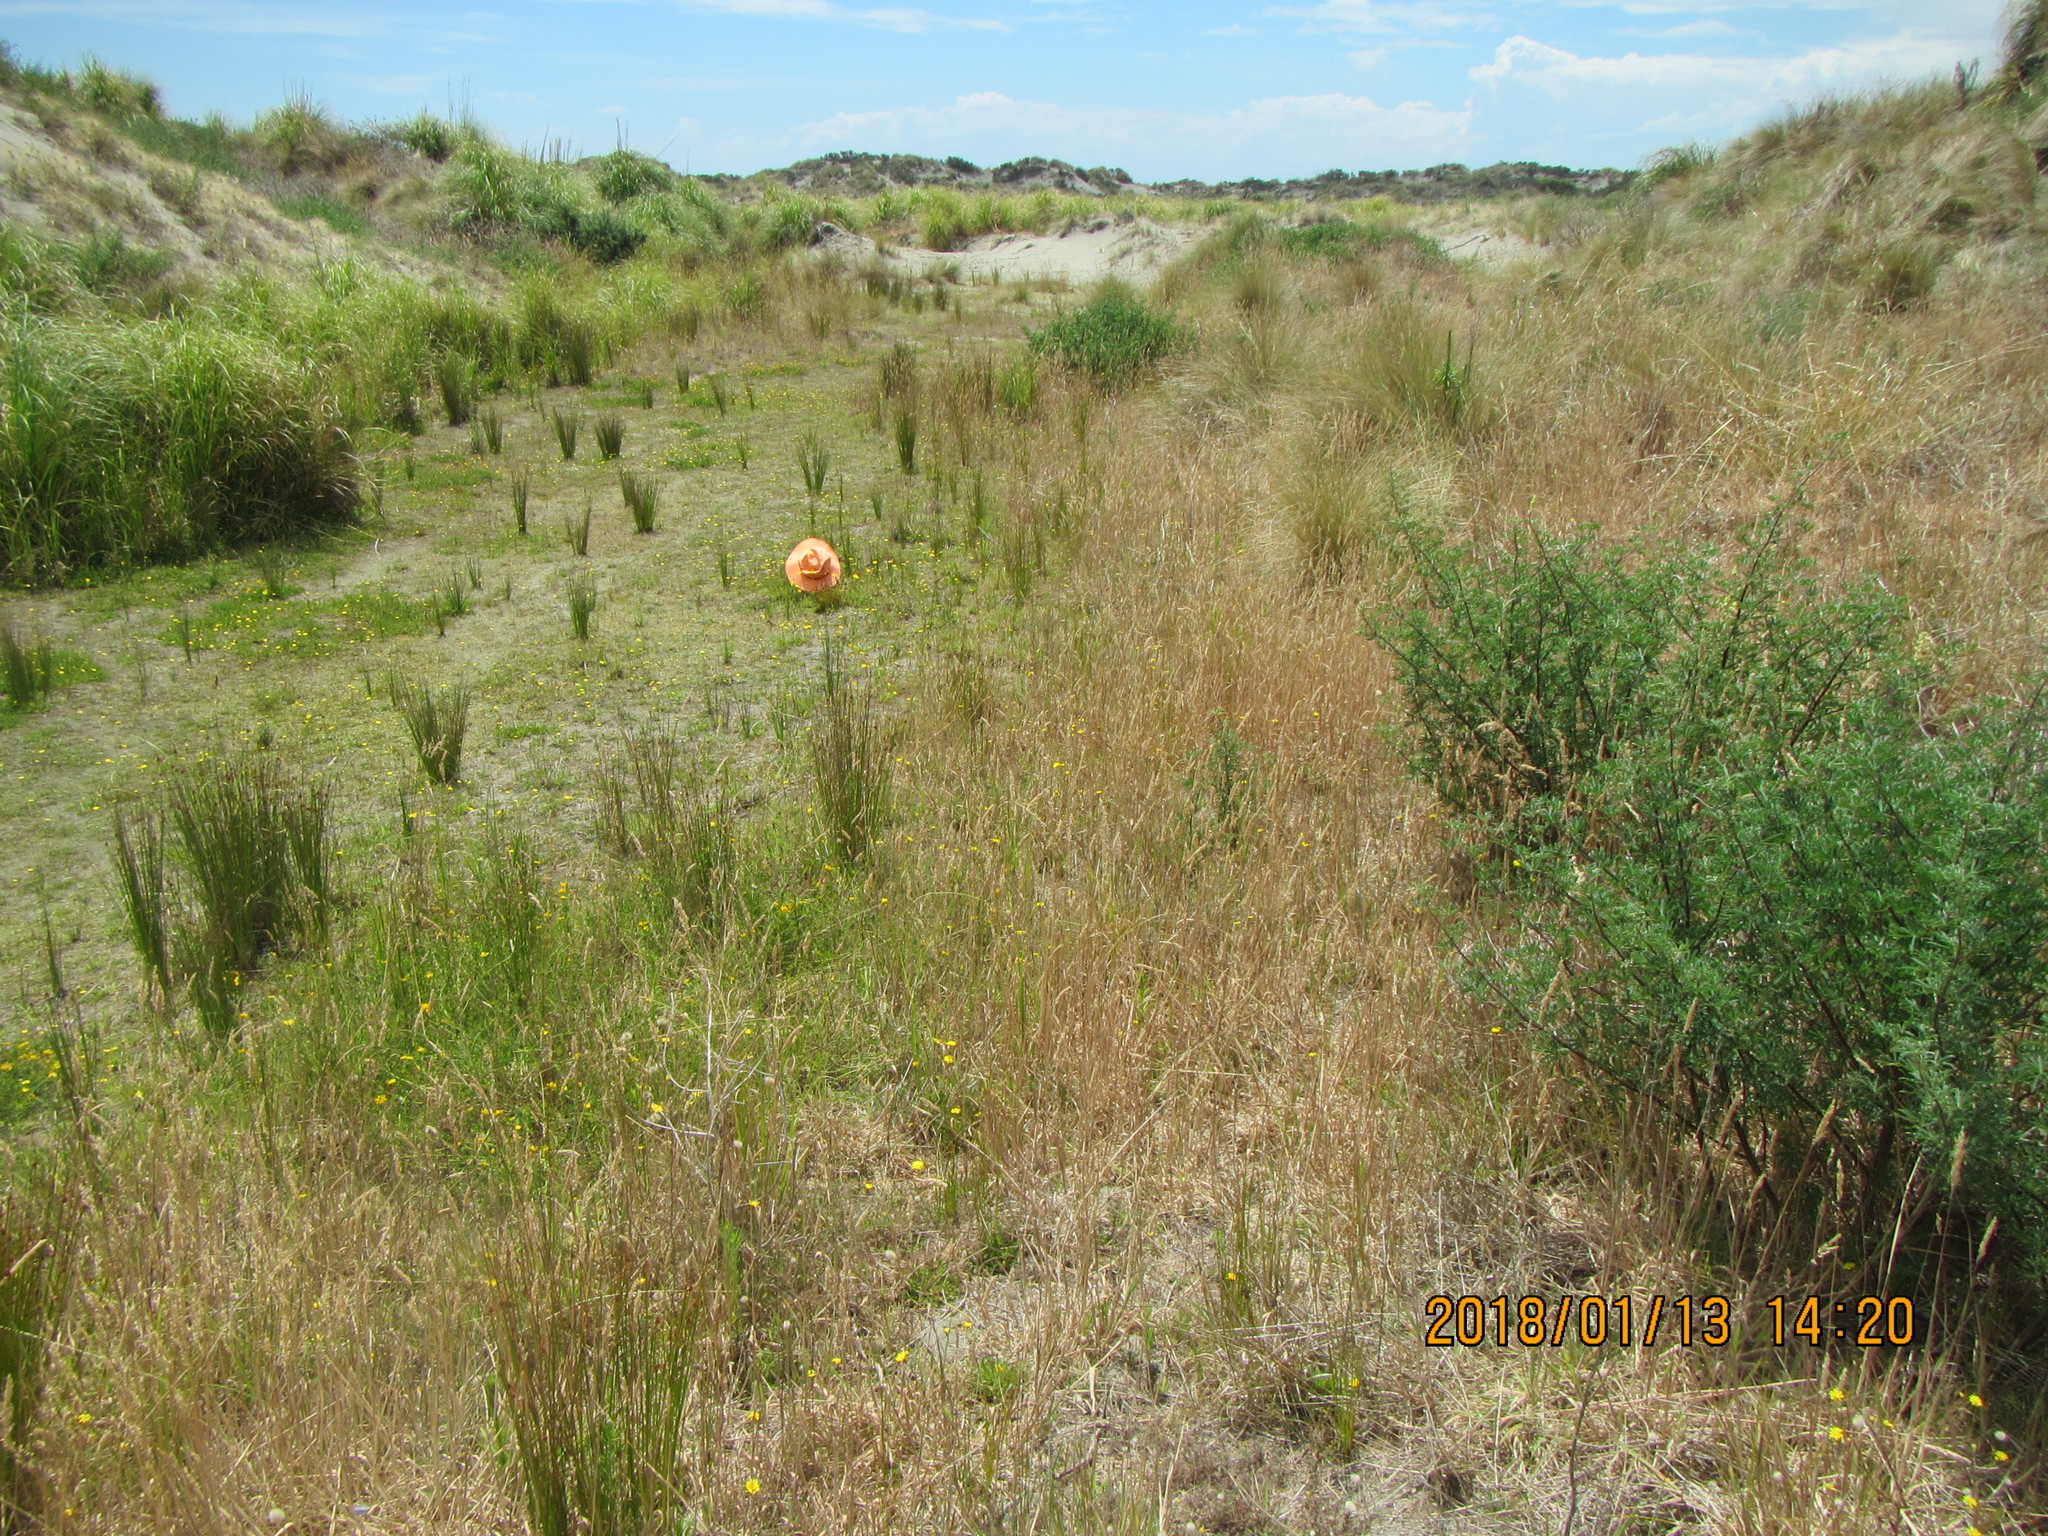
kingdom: Plantae
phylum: Tracheophyta
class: Liliopsida
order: Poales
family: Juncaceae
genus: Juncus
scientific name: Juncus caespiticius
